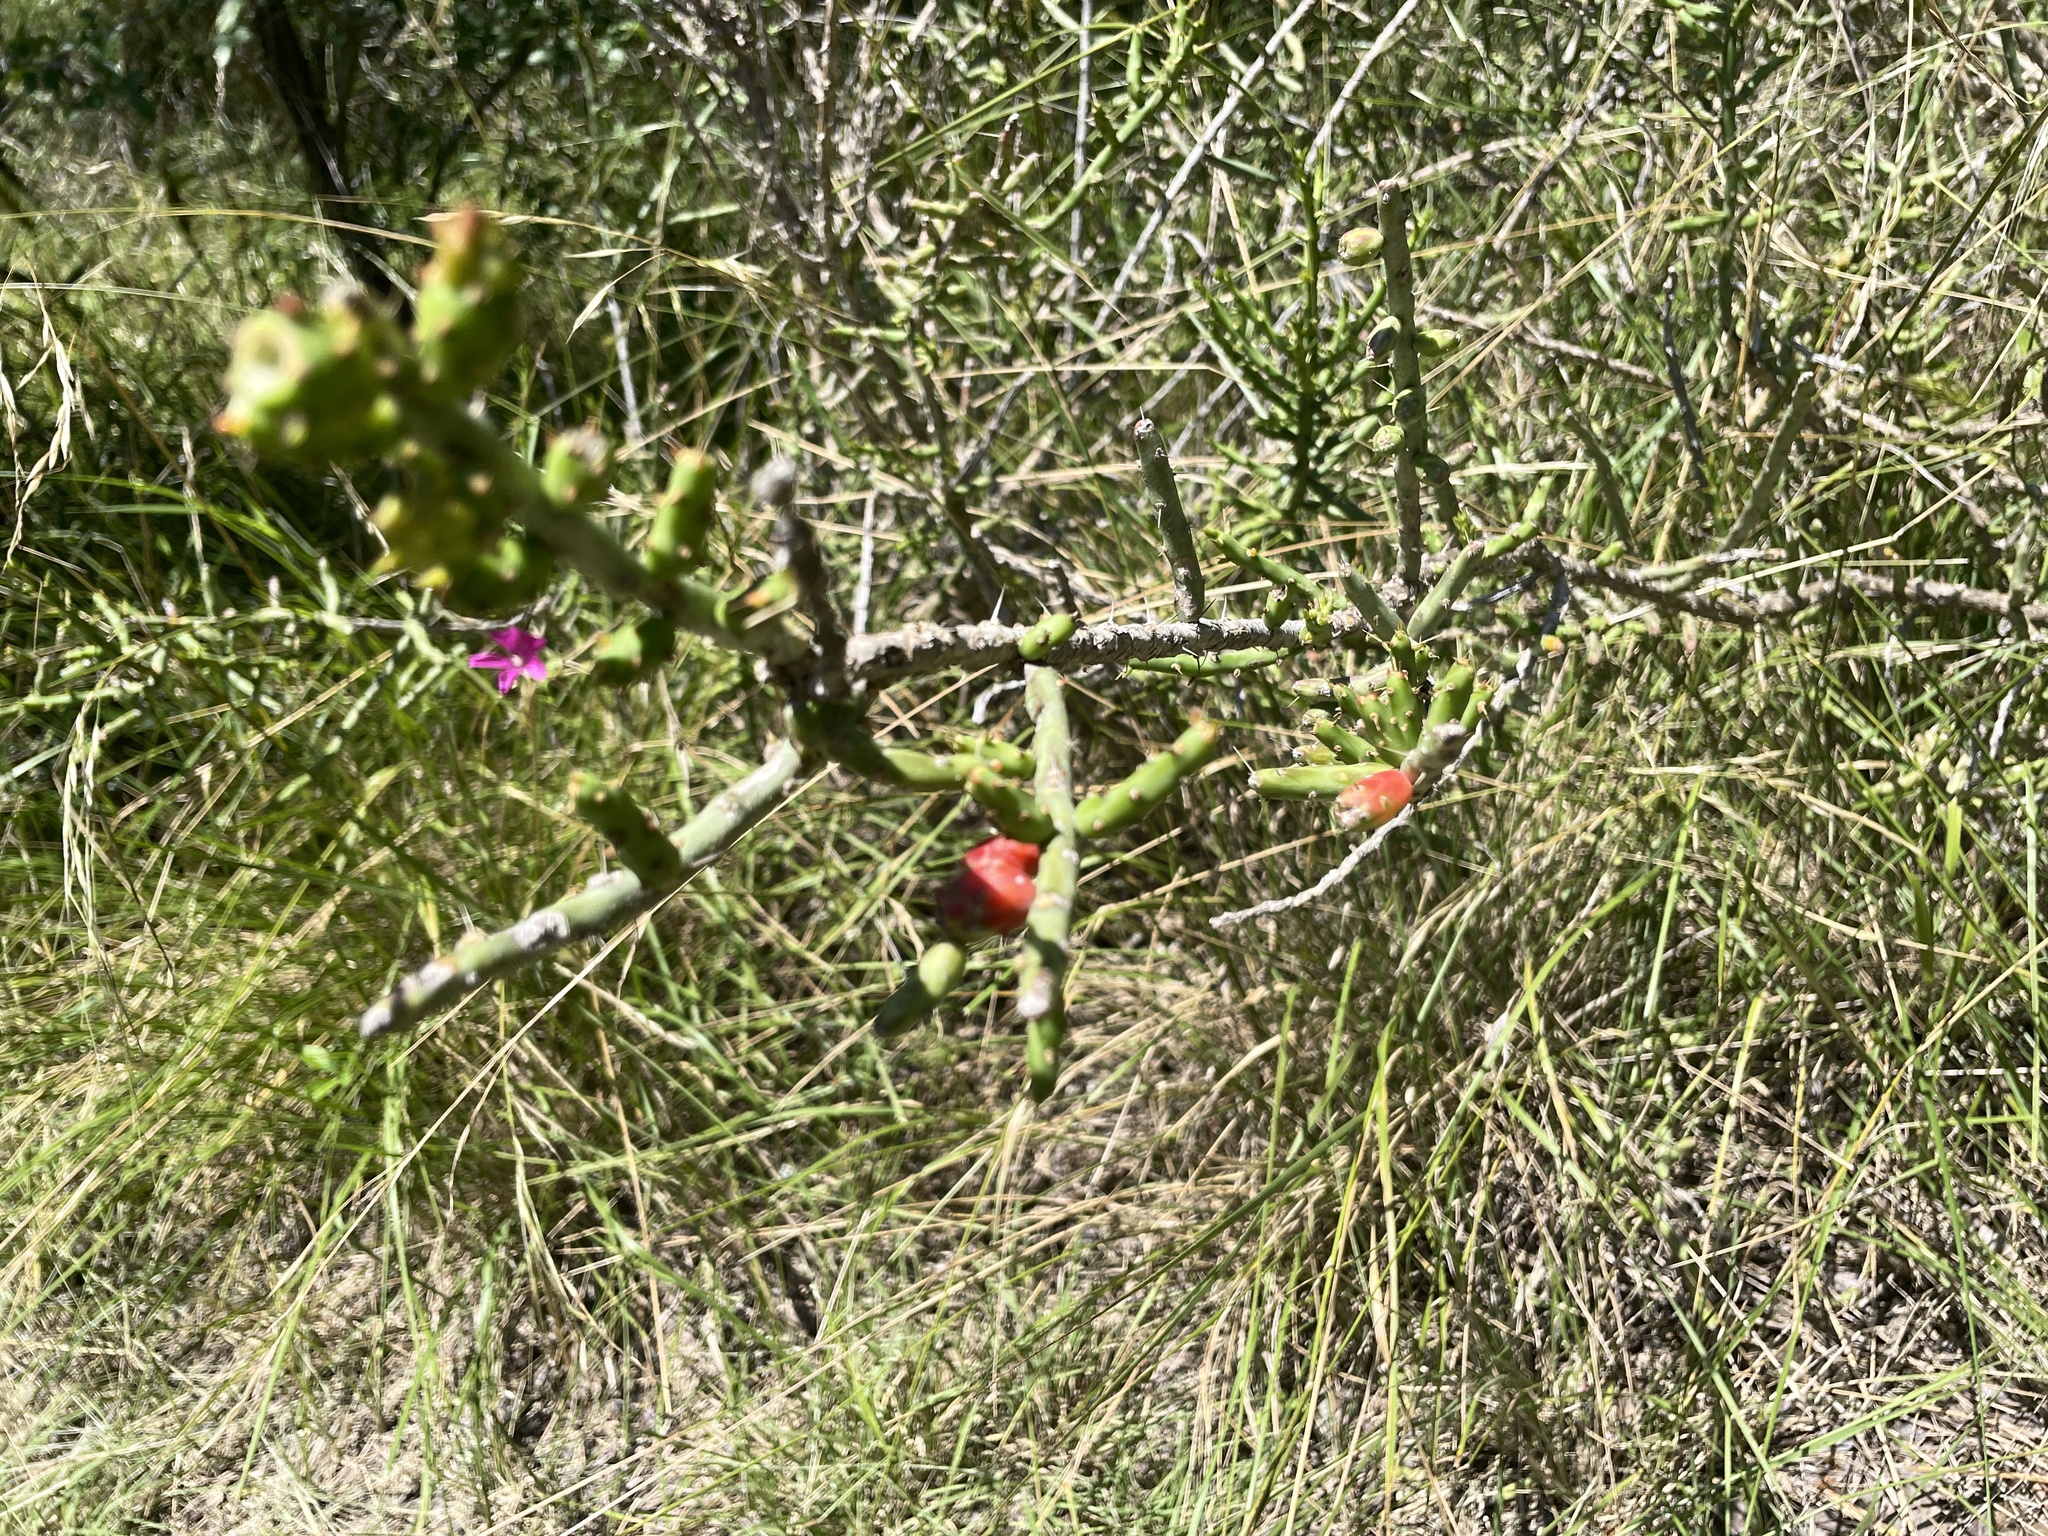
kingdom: Plantae
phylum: Tracheophyta
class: Magnoliopsida
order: Caryophyllales
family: Cactaceae
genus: Cylindropuntia
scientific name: Cylindropuntia leptocaulis
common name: Christmas cactus
